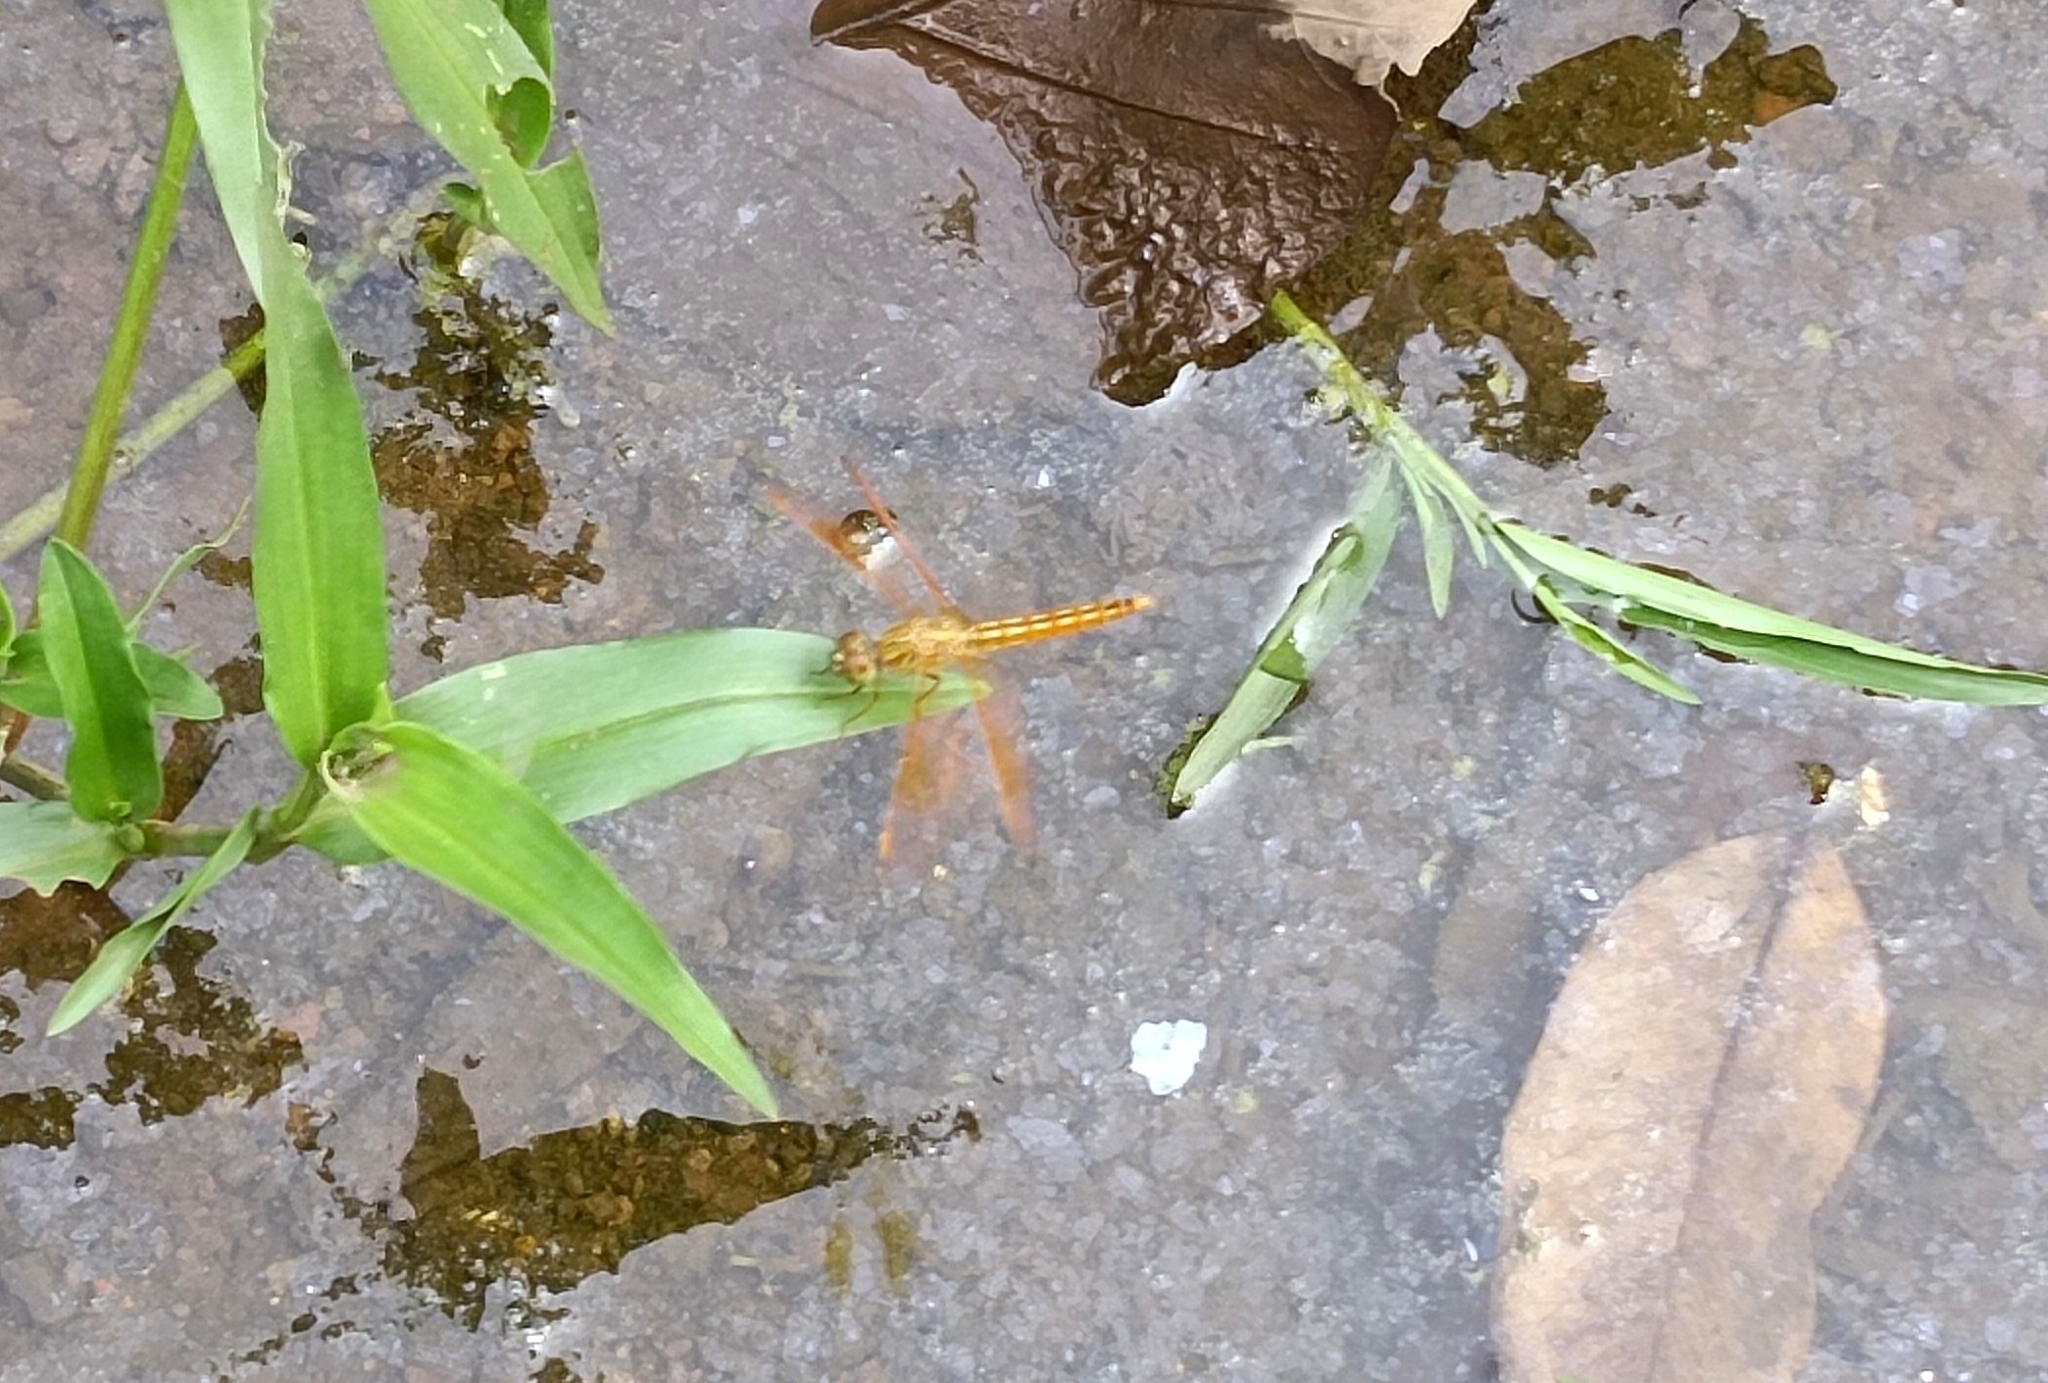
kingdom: Animalia
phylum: Arthropoda
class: Insecta
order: Odonata
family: Libellulidae
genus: Brachythemis
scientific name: Brachythemis contaminata
